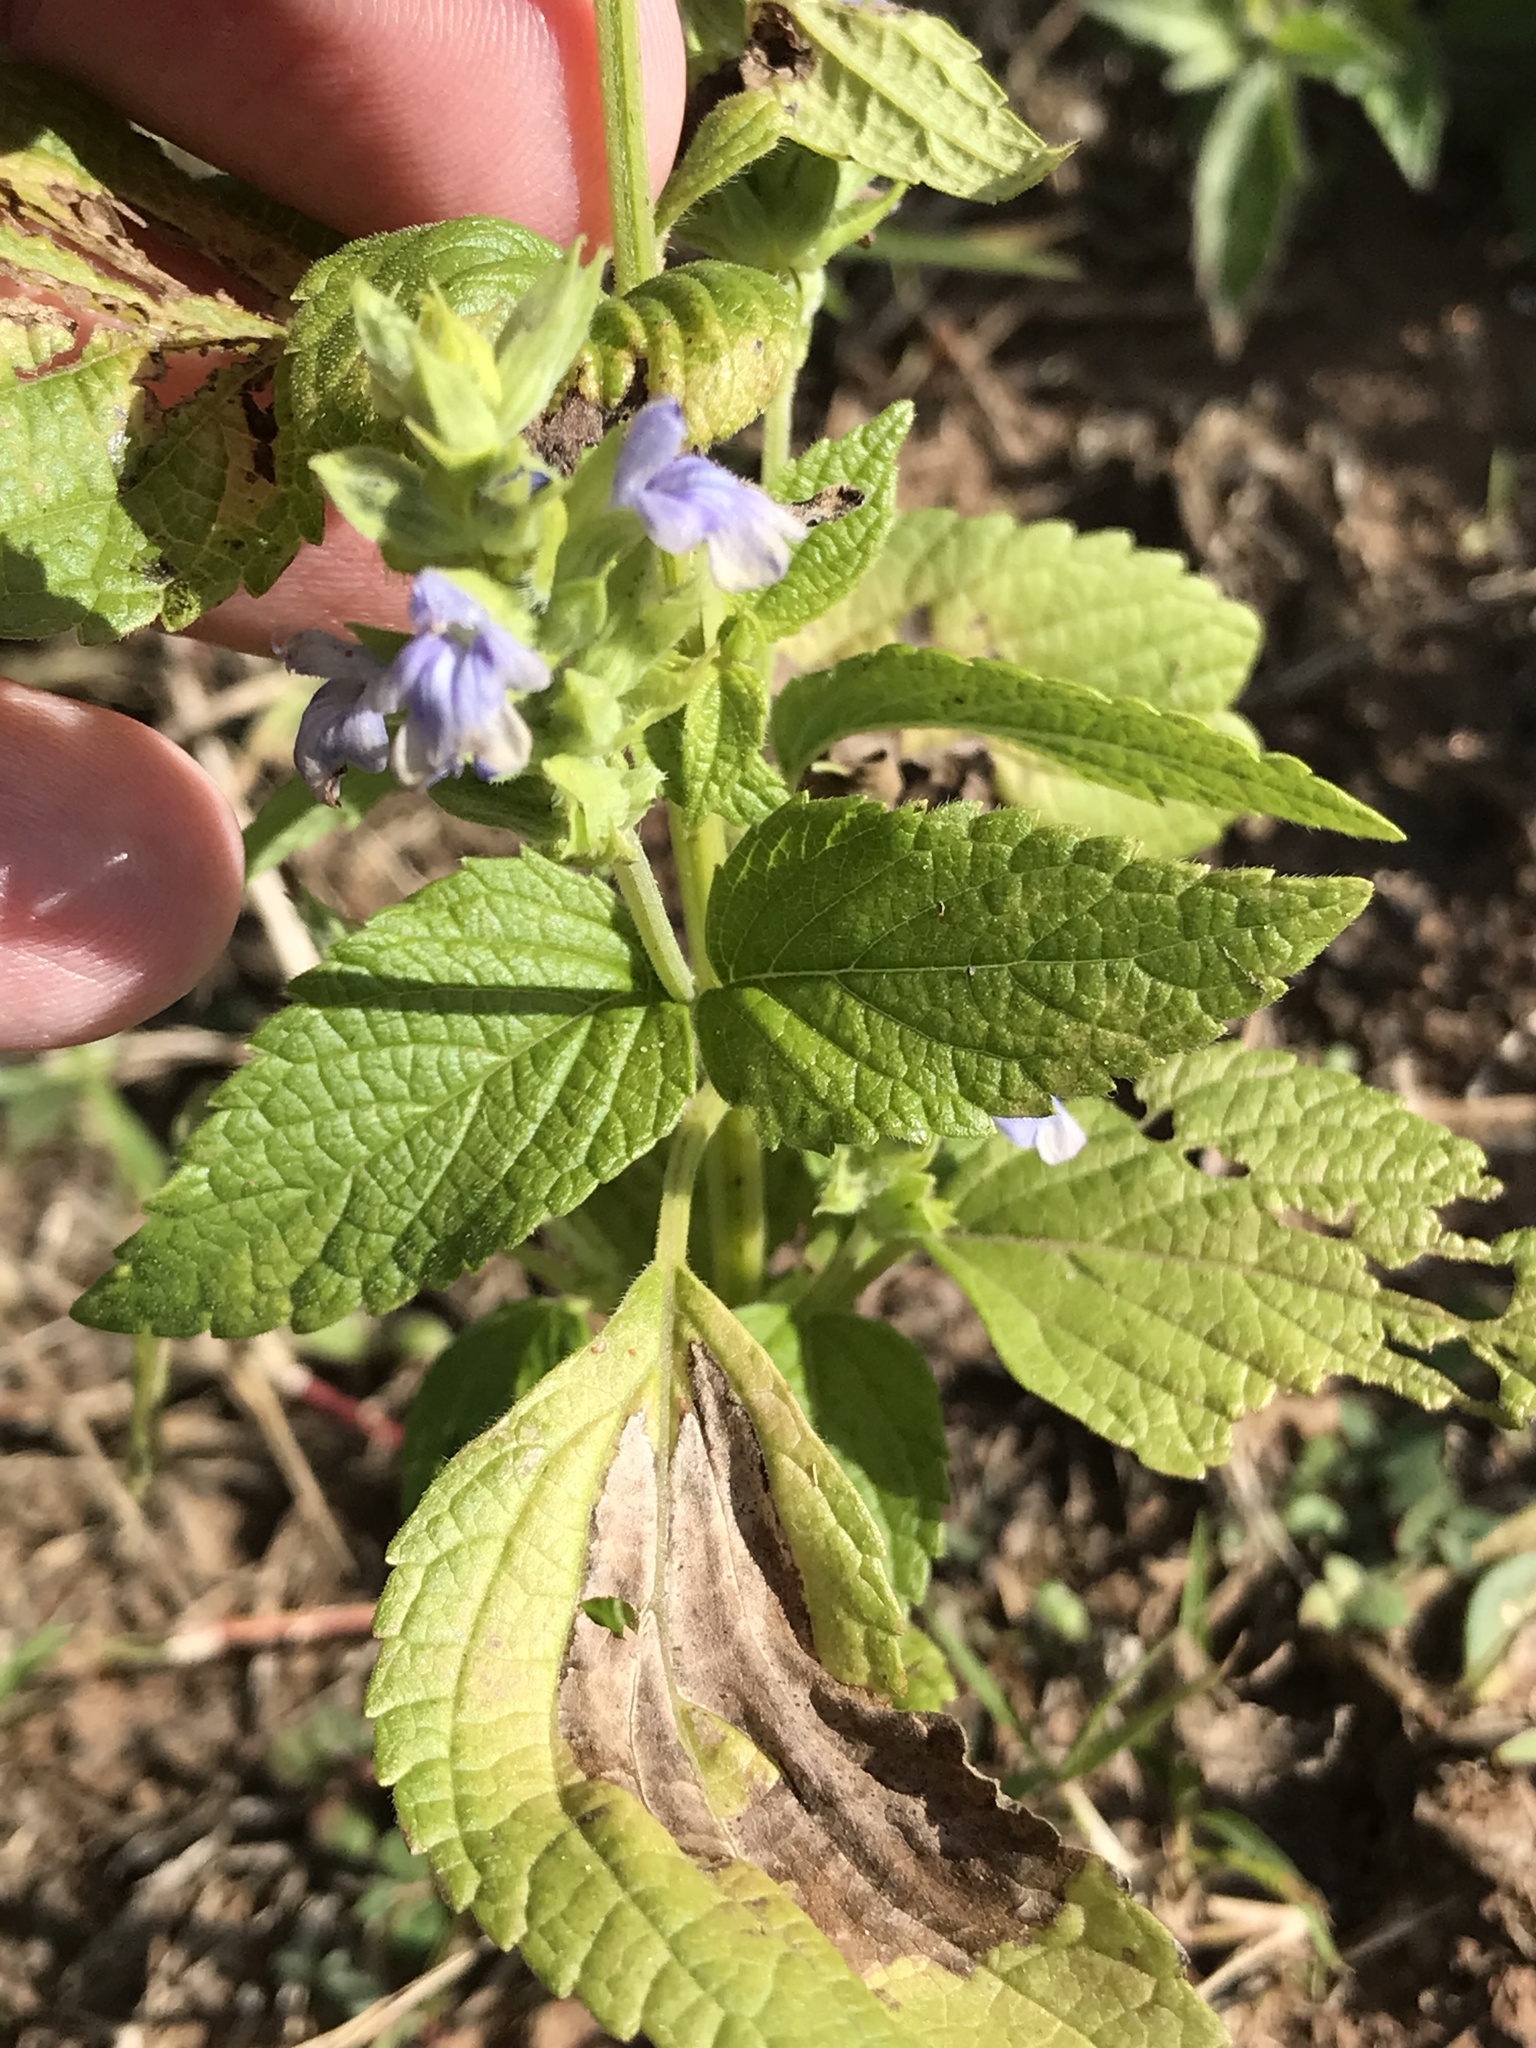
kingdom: Plantae
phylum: Tracheophyta
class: Magnoliopsida
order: Lamiales
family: Lamiaceae
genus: Salvia
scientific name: Salvia hispanica
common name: Chia
